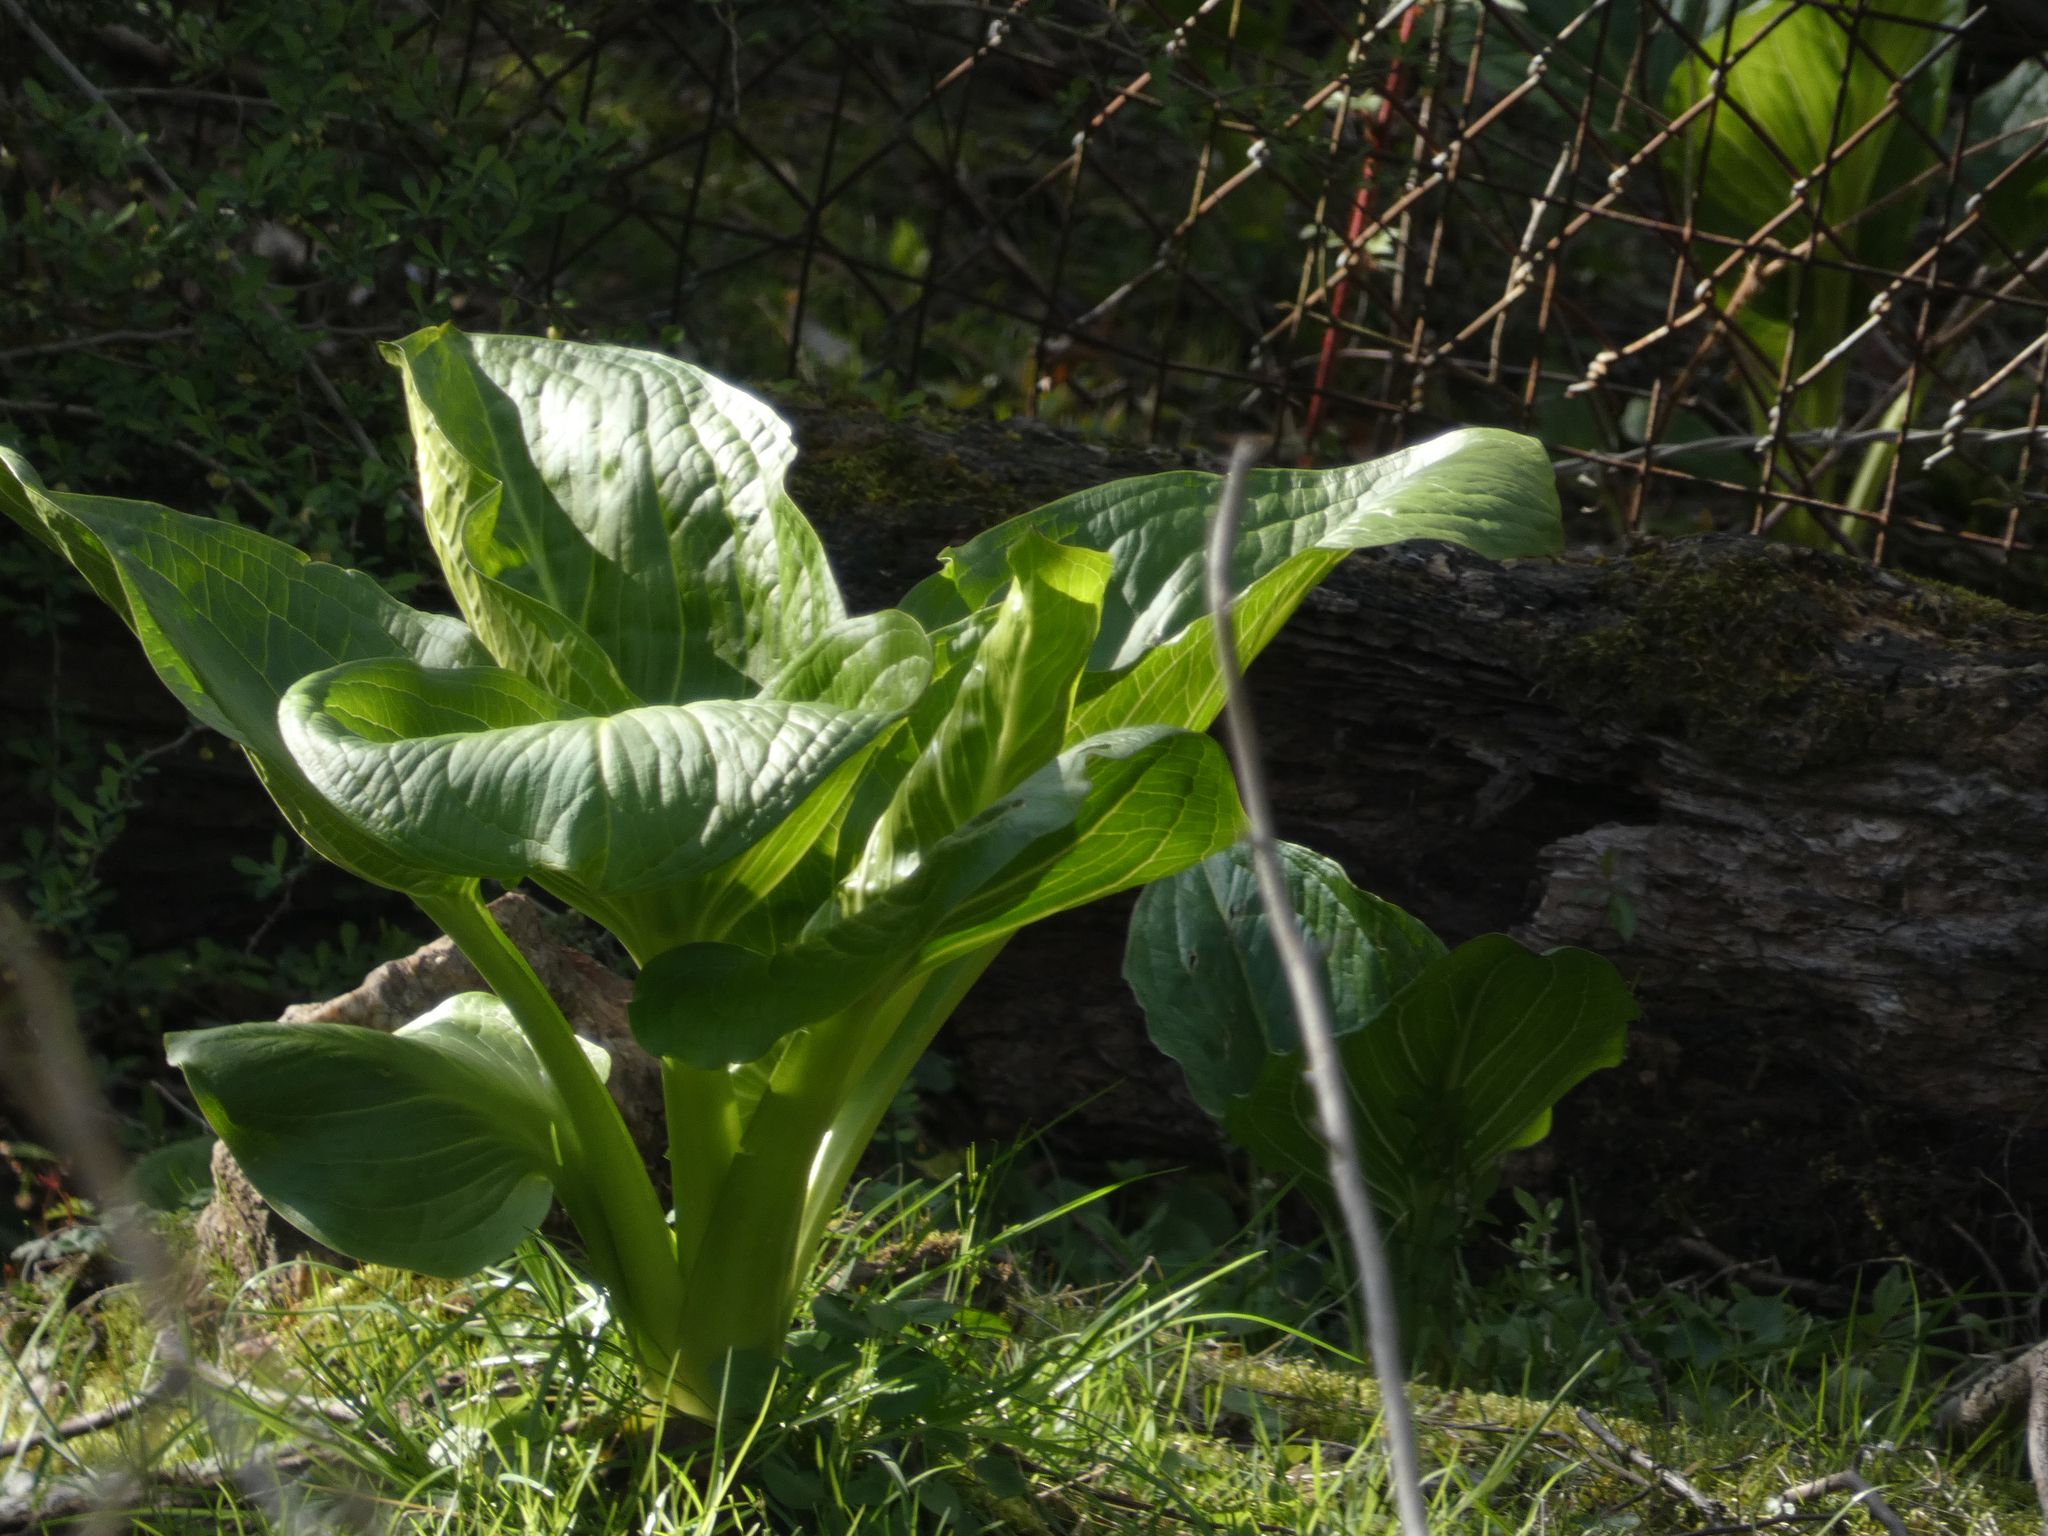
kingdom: Plantae
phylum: Tracheophyta
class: Liliopsida
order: Alismatales
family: Araceae
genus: Symplocarpus
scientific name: Symplocarpus foetidus
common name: Eastern skunk cabbage
